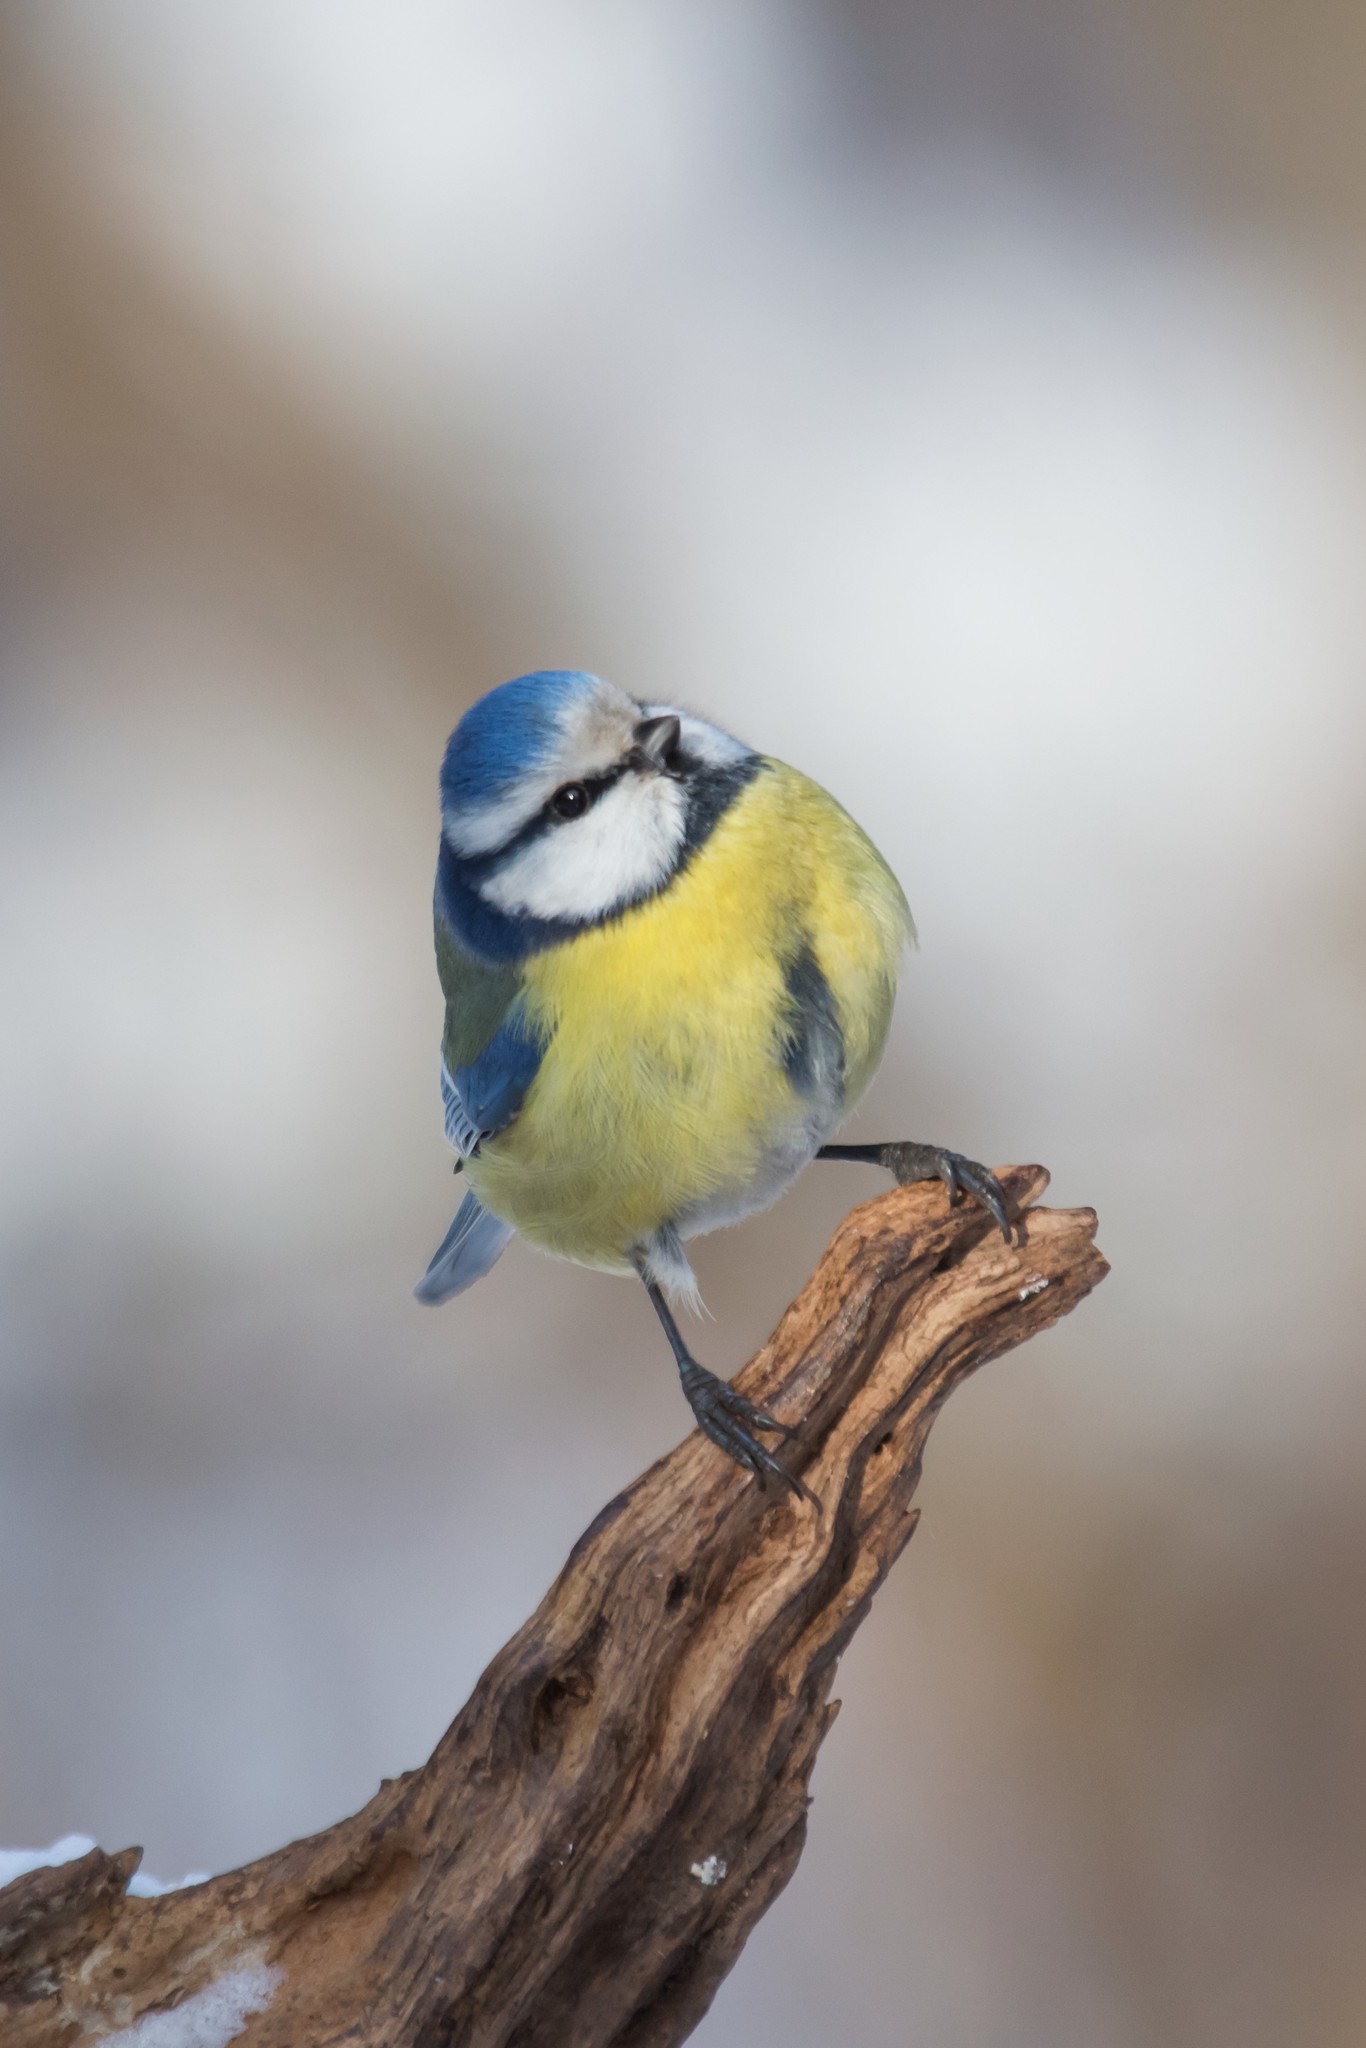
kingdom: Animalia
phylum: Chordata
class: Aves
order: Passeriformes
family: Paridae
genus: Cyanistes
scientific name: Cyanistes caeruleus
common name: Eurasian blue tit
